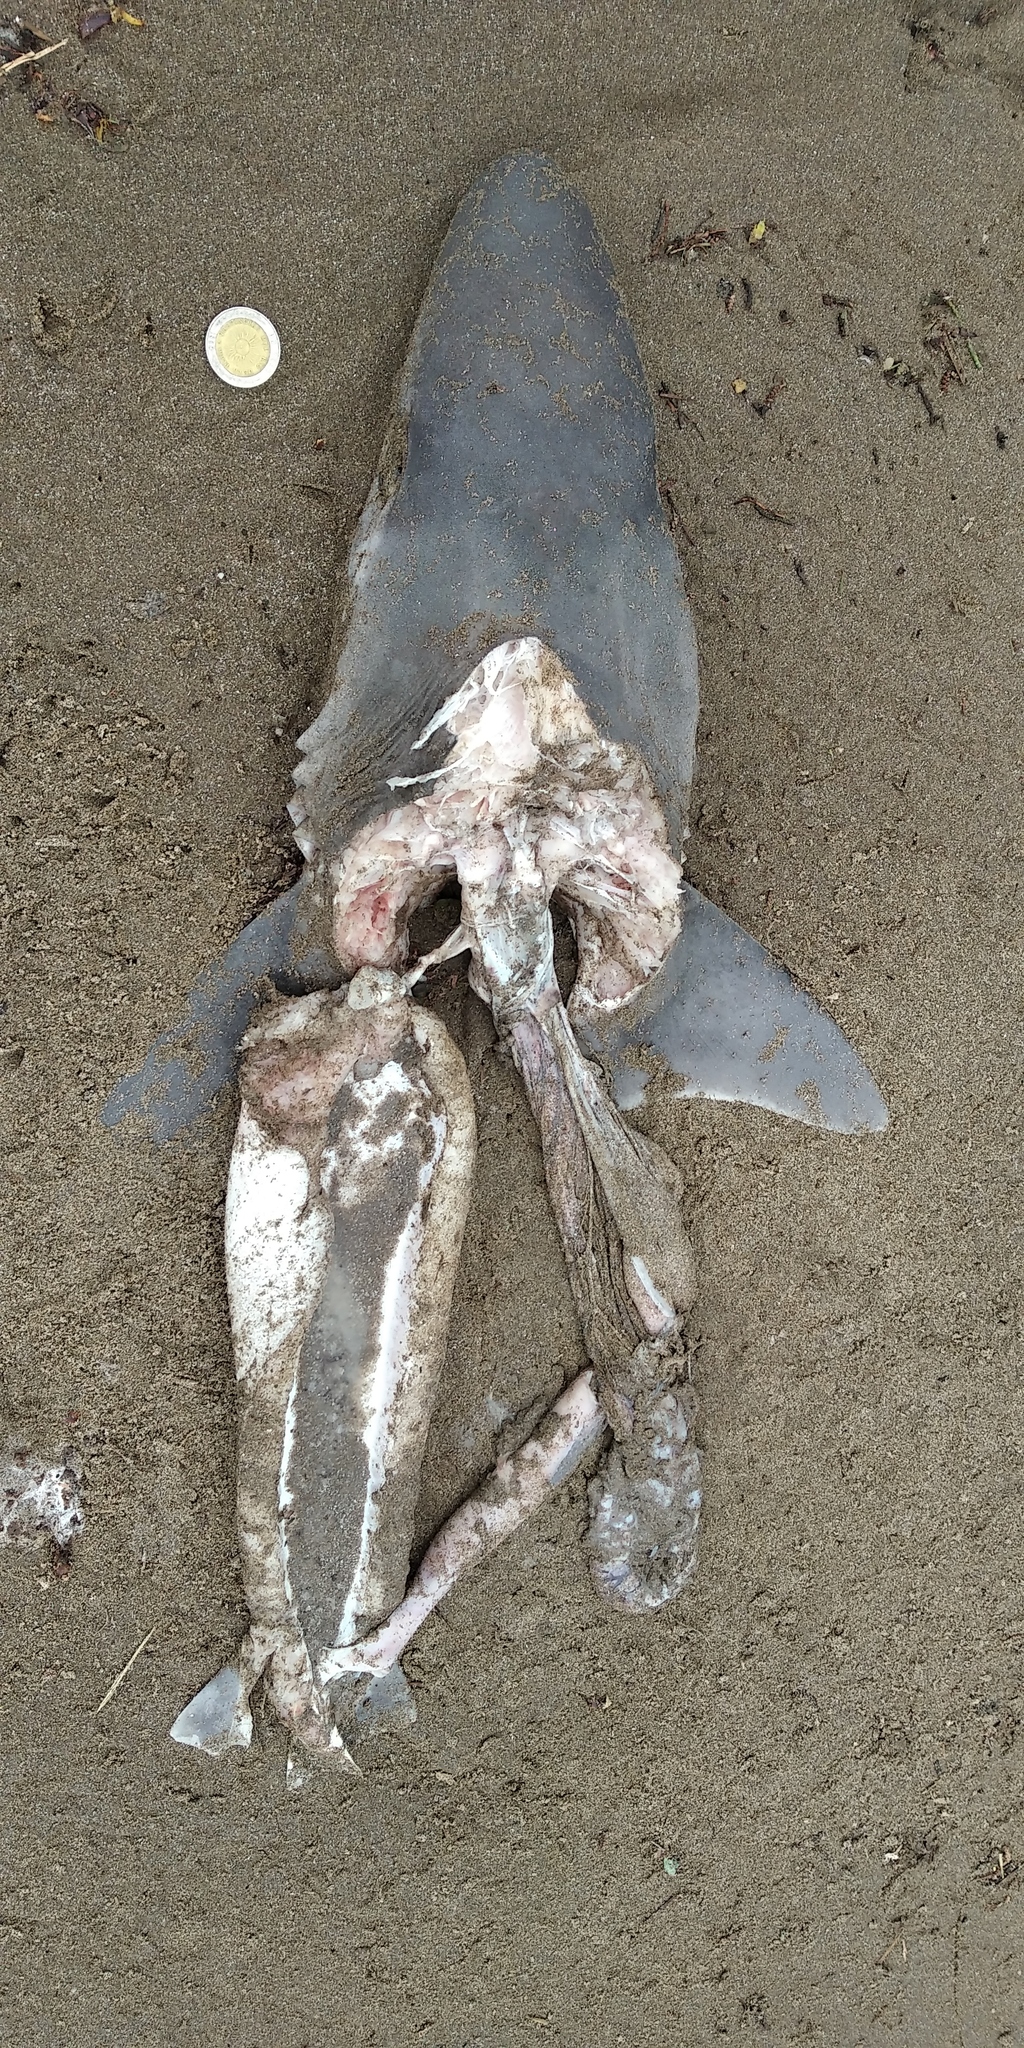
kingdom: Animalia
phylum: Chordata
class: Elasmobranchii
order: Carcharhiniformes
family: Triakidae
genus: Galeorhinus
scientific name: Galeorhinus galeus
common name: Tope
